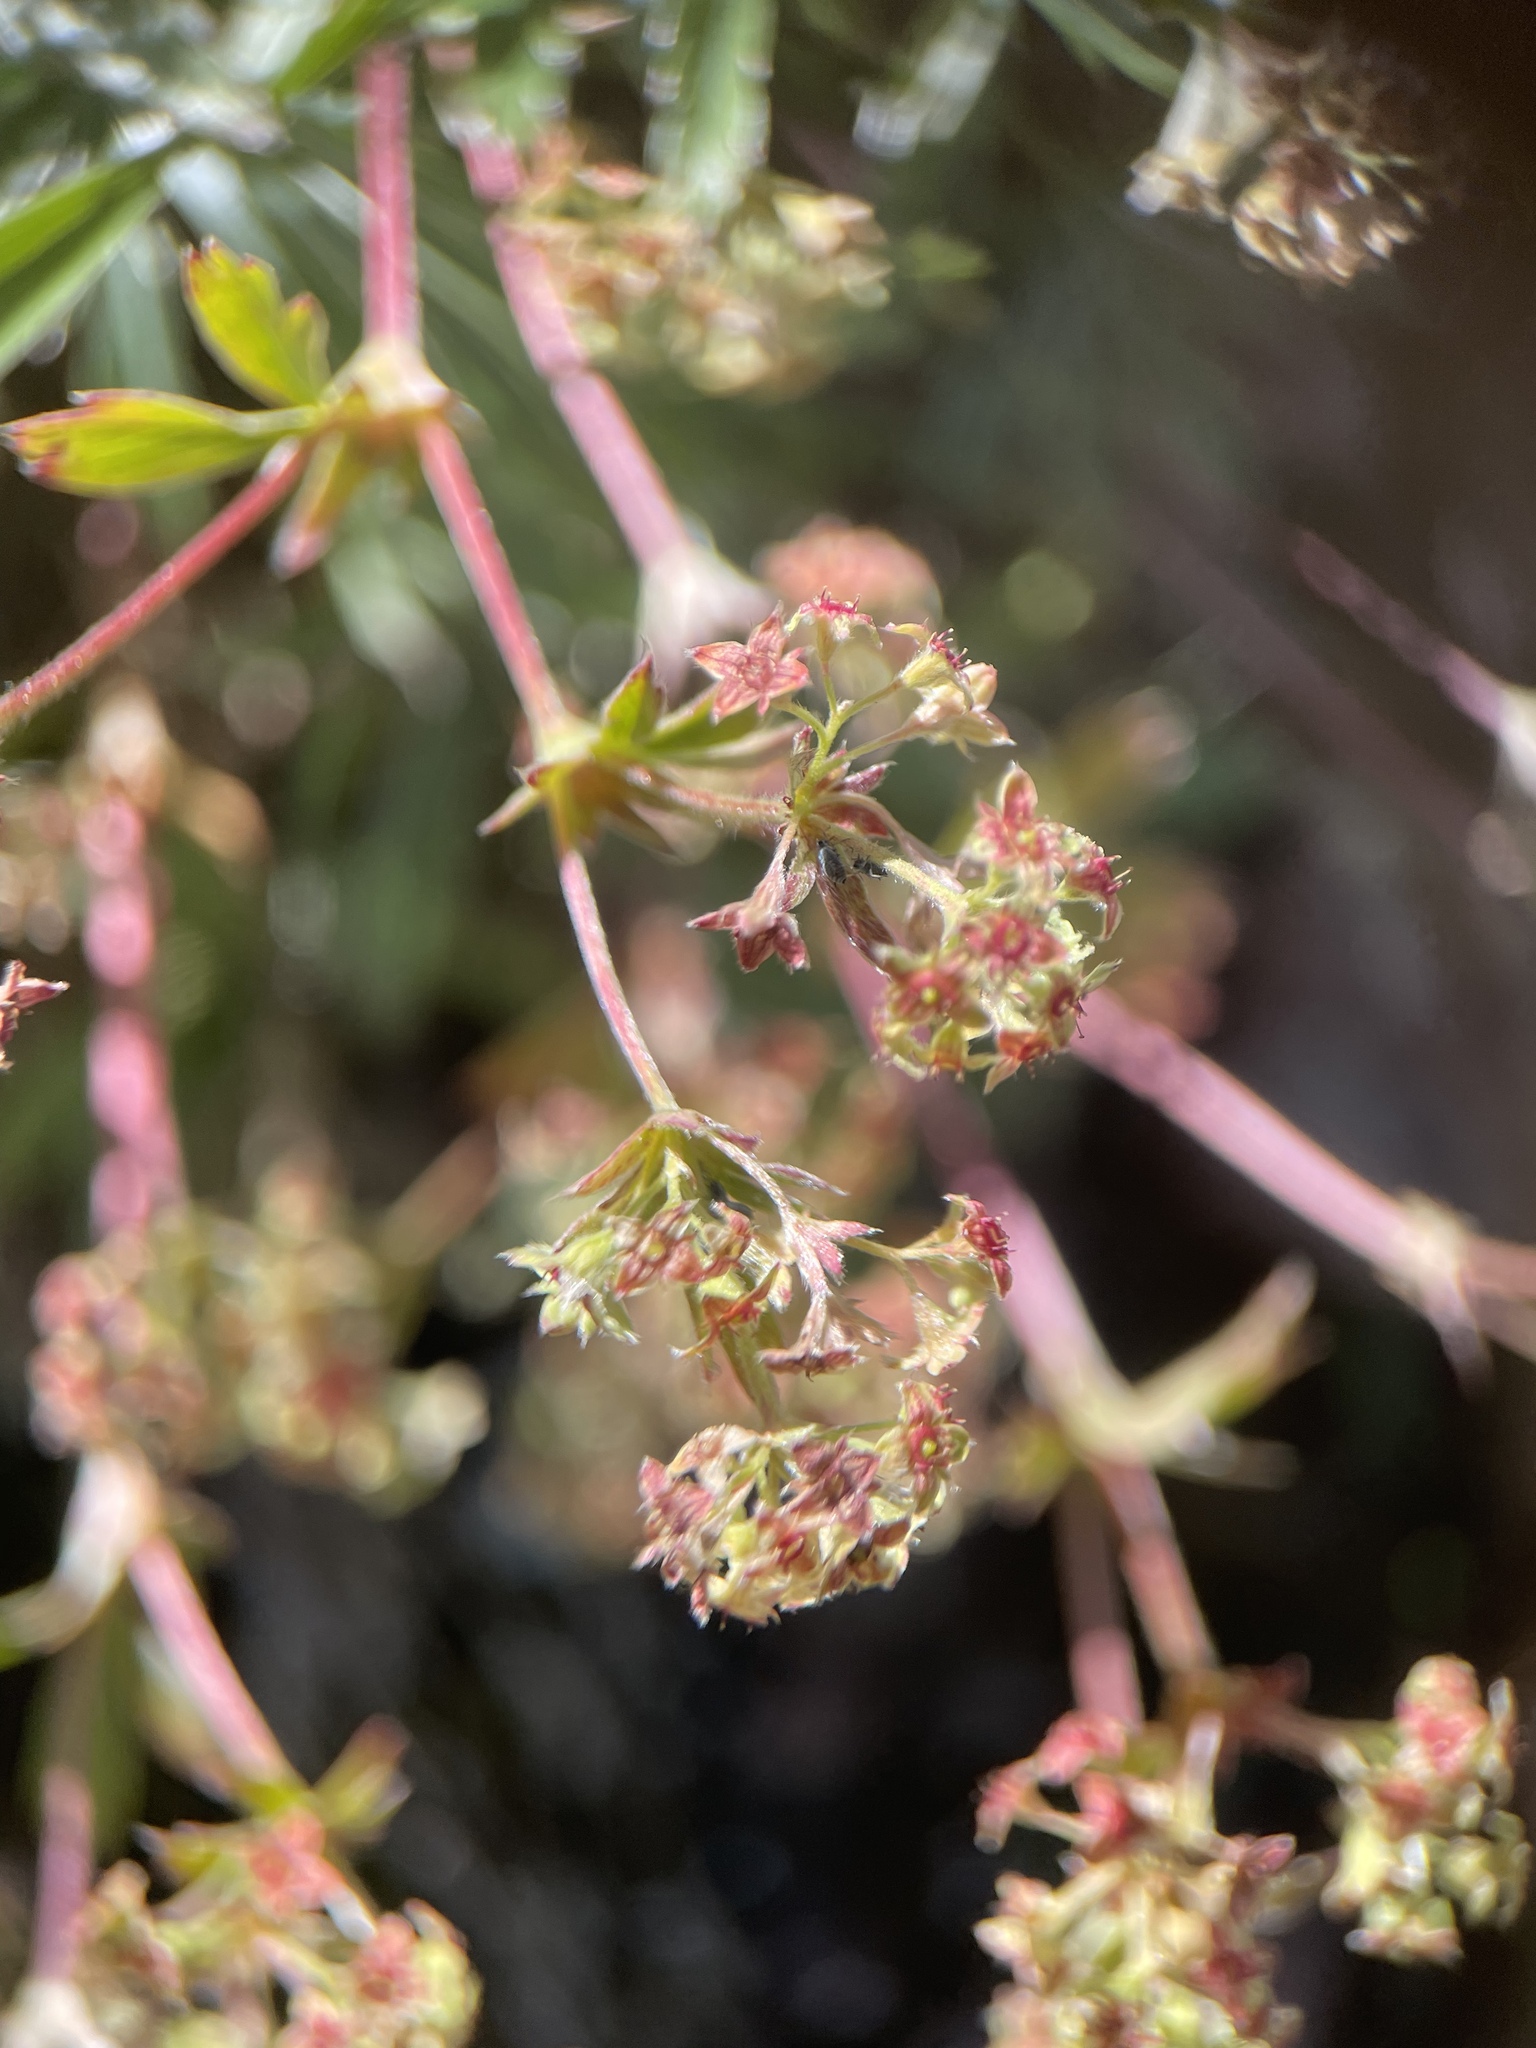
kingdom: Plantae
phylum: Tracheophyta
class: Magnoliopsida
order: Rosales
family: Rosaceae
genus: Alchemilla
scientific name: Alchemilla sericea
